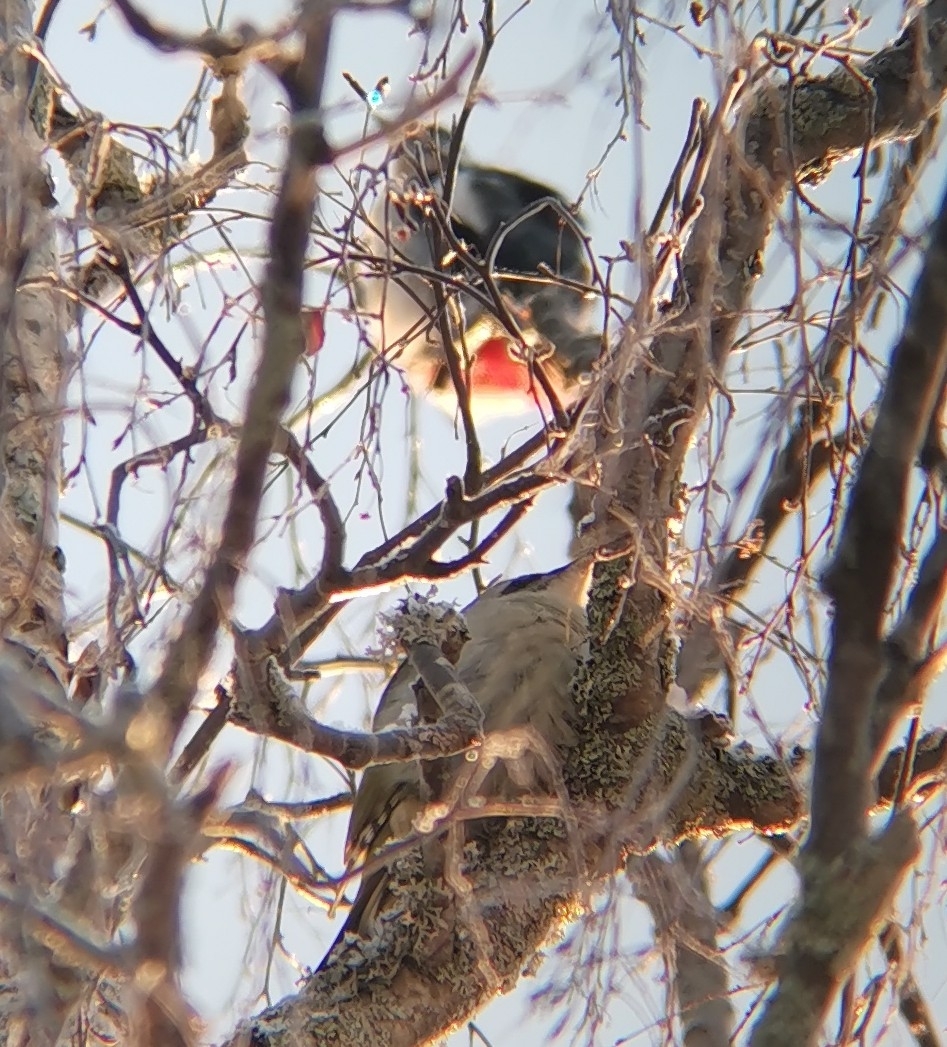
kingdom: Animalia
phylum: Chordata
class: Aves
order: Piciformes
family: Picidae
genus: Picus
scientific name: Picus canus
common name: Grey-headed woodpecker
